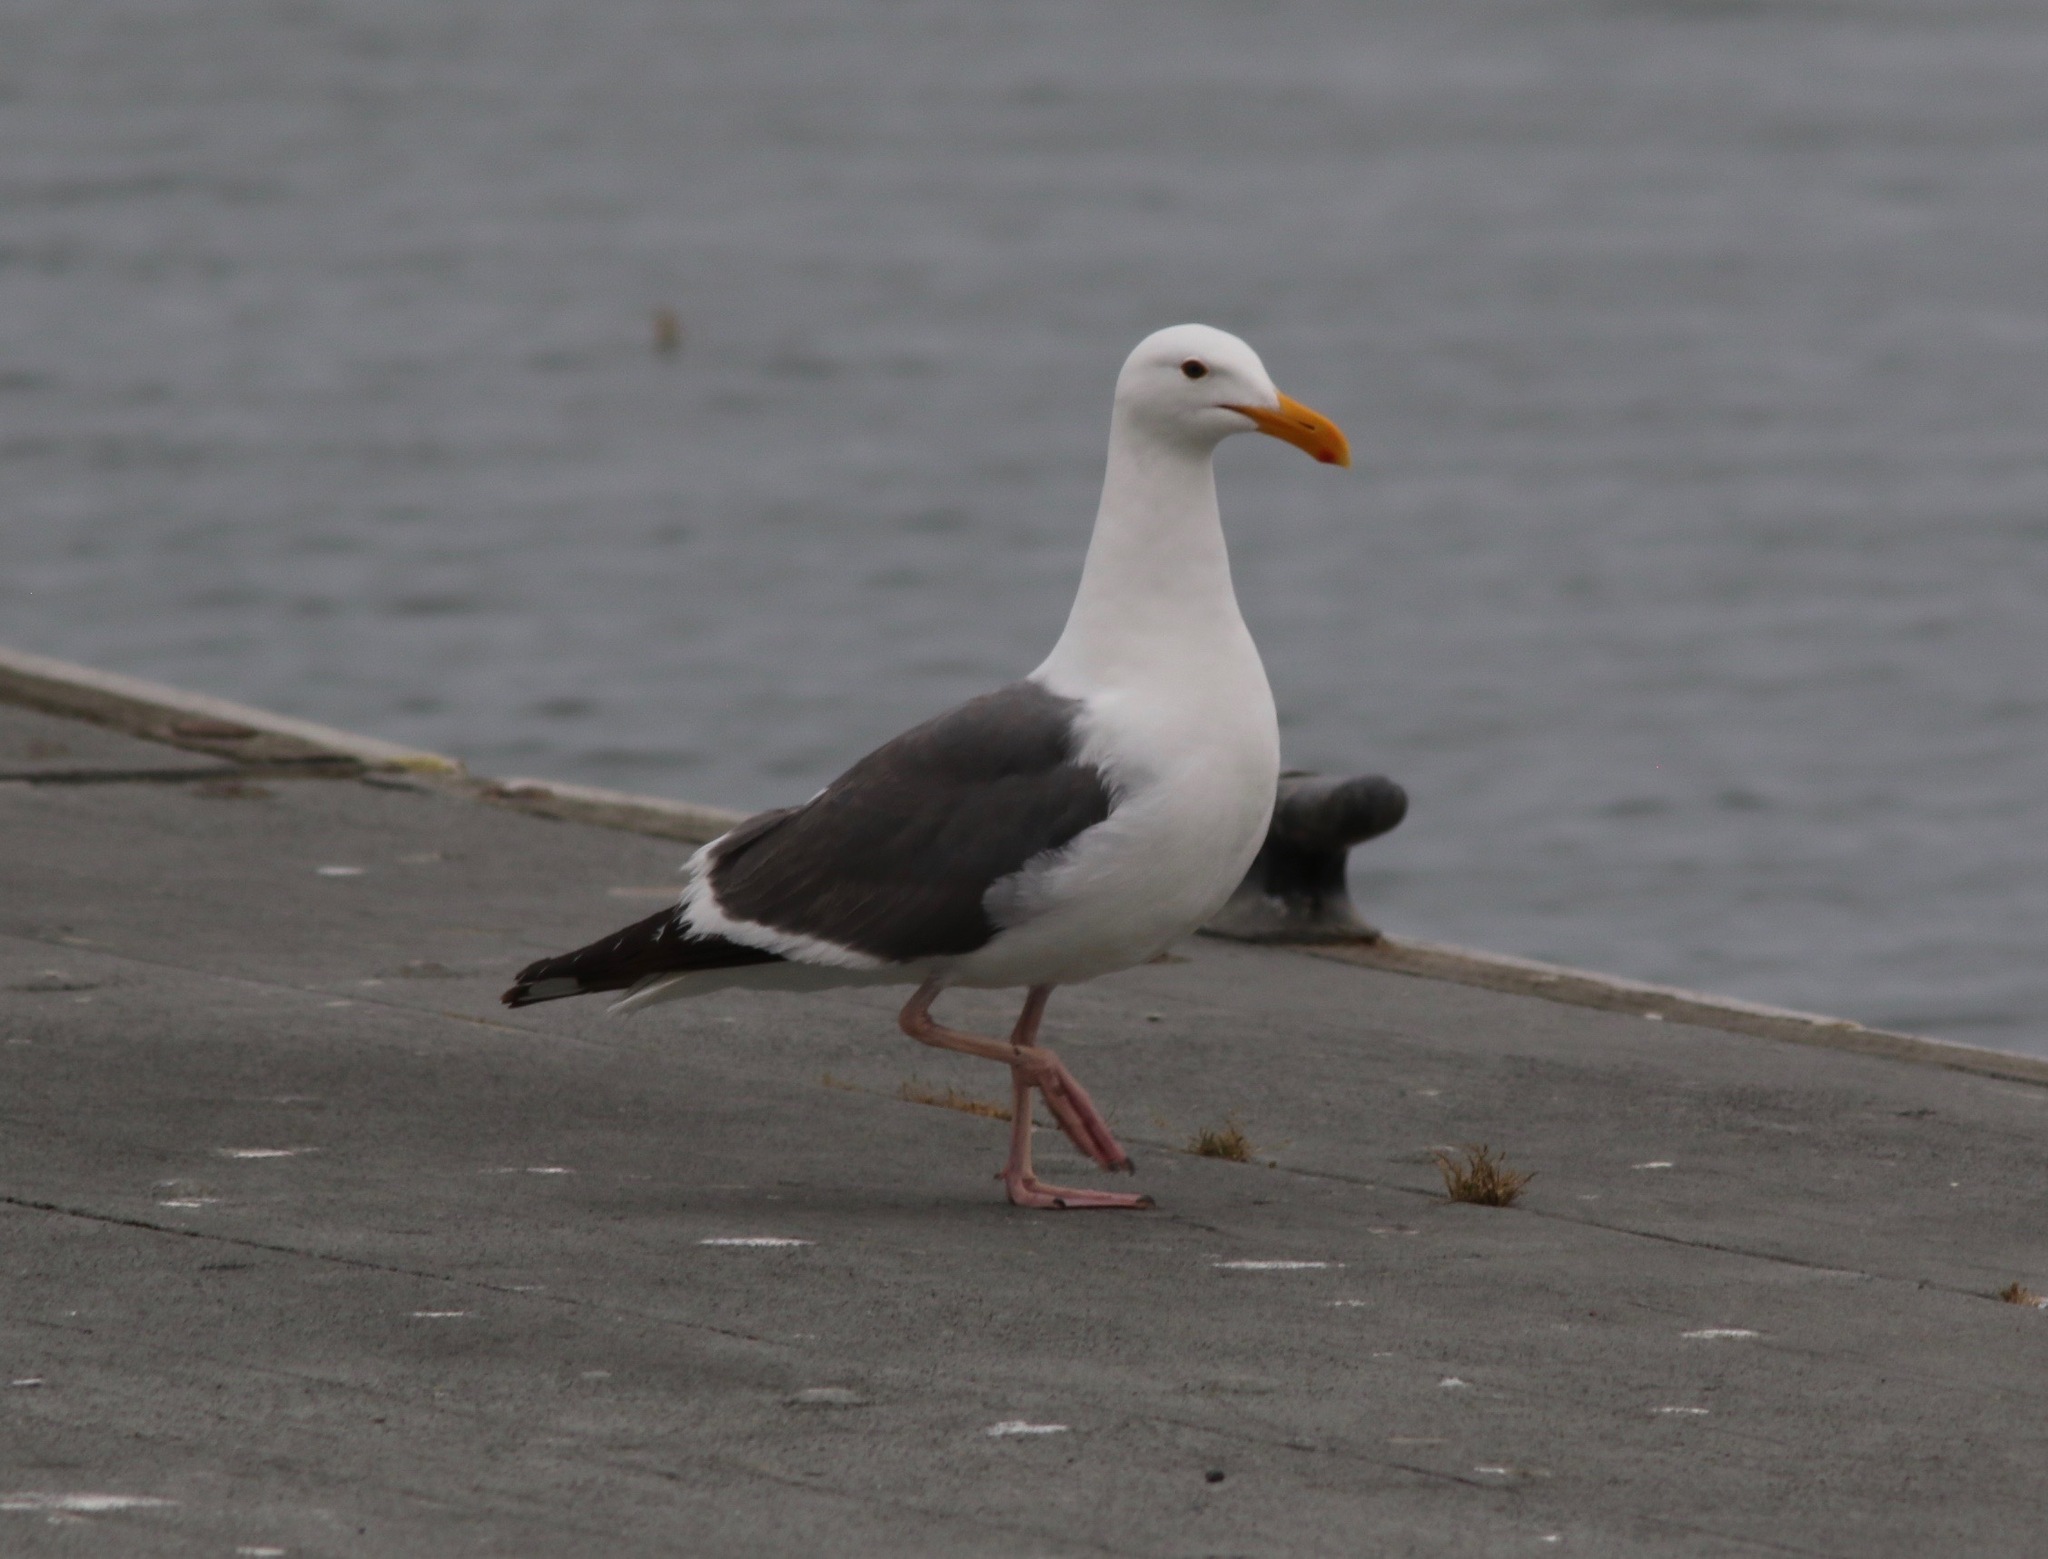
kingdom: Animalia
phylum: Chordata
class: Aves
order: Charadriiformes
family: Laridae
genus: Larus
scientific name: Larus occidentalis
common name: Western gull
